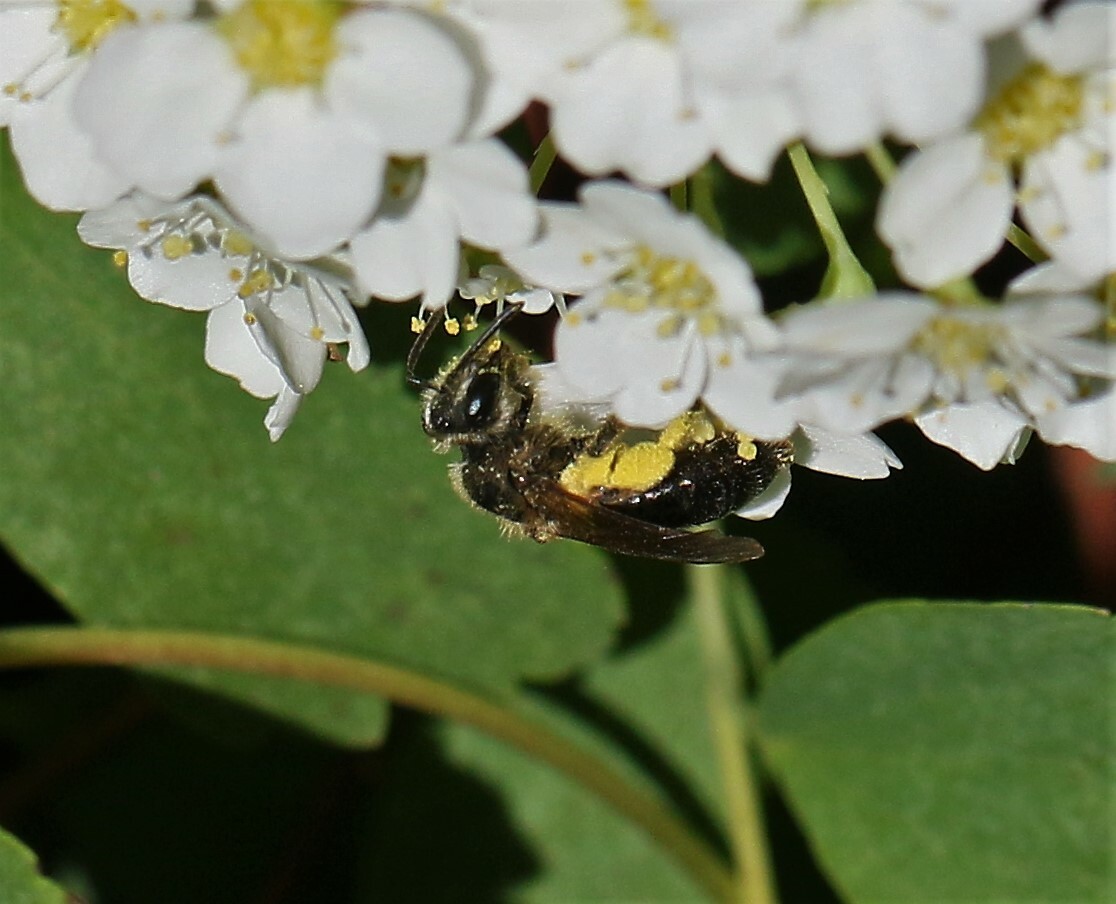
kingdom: Animalia
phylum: Arthropoda
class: Insecta
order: Hymenoptera
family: Andrenidae
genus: Andrena
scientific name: Andrena crataegi
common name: Hawthorn mining bee
